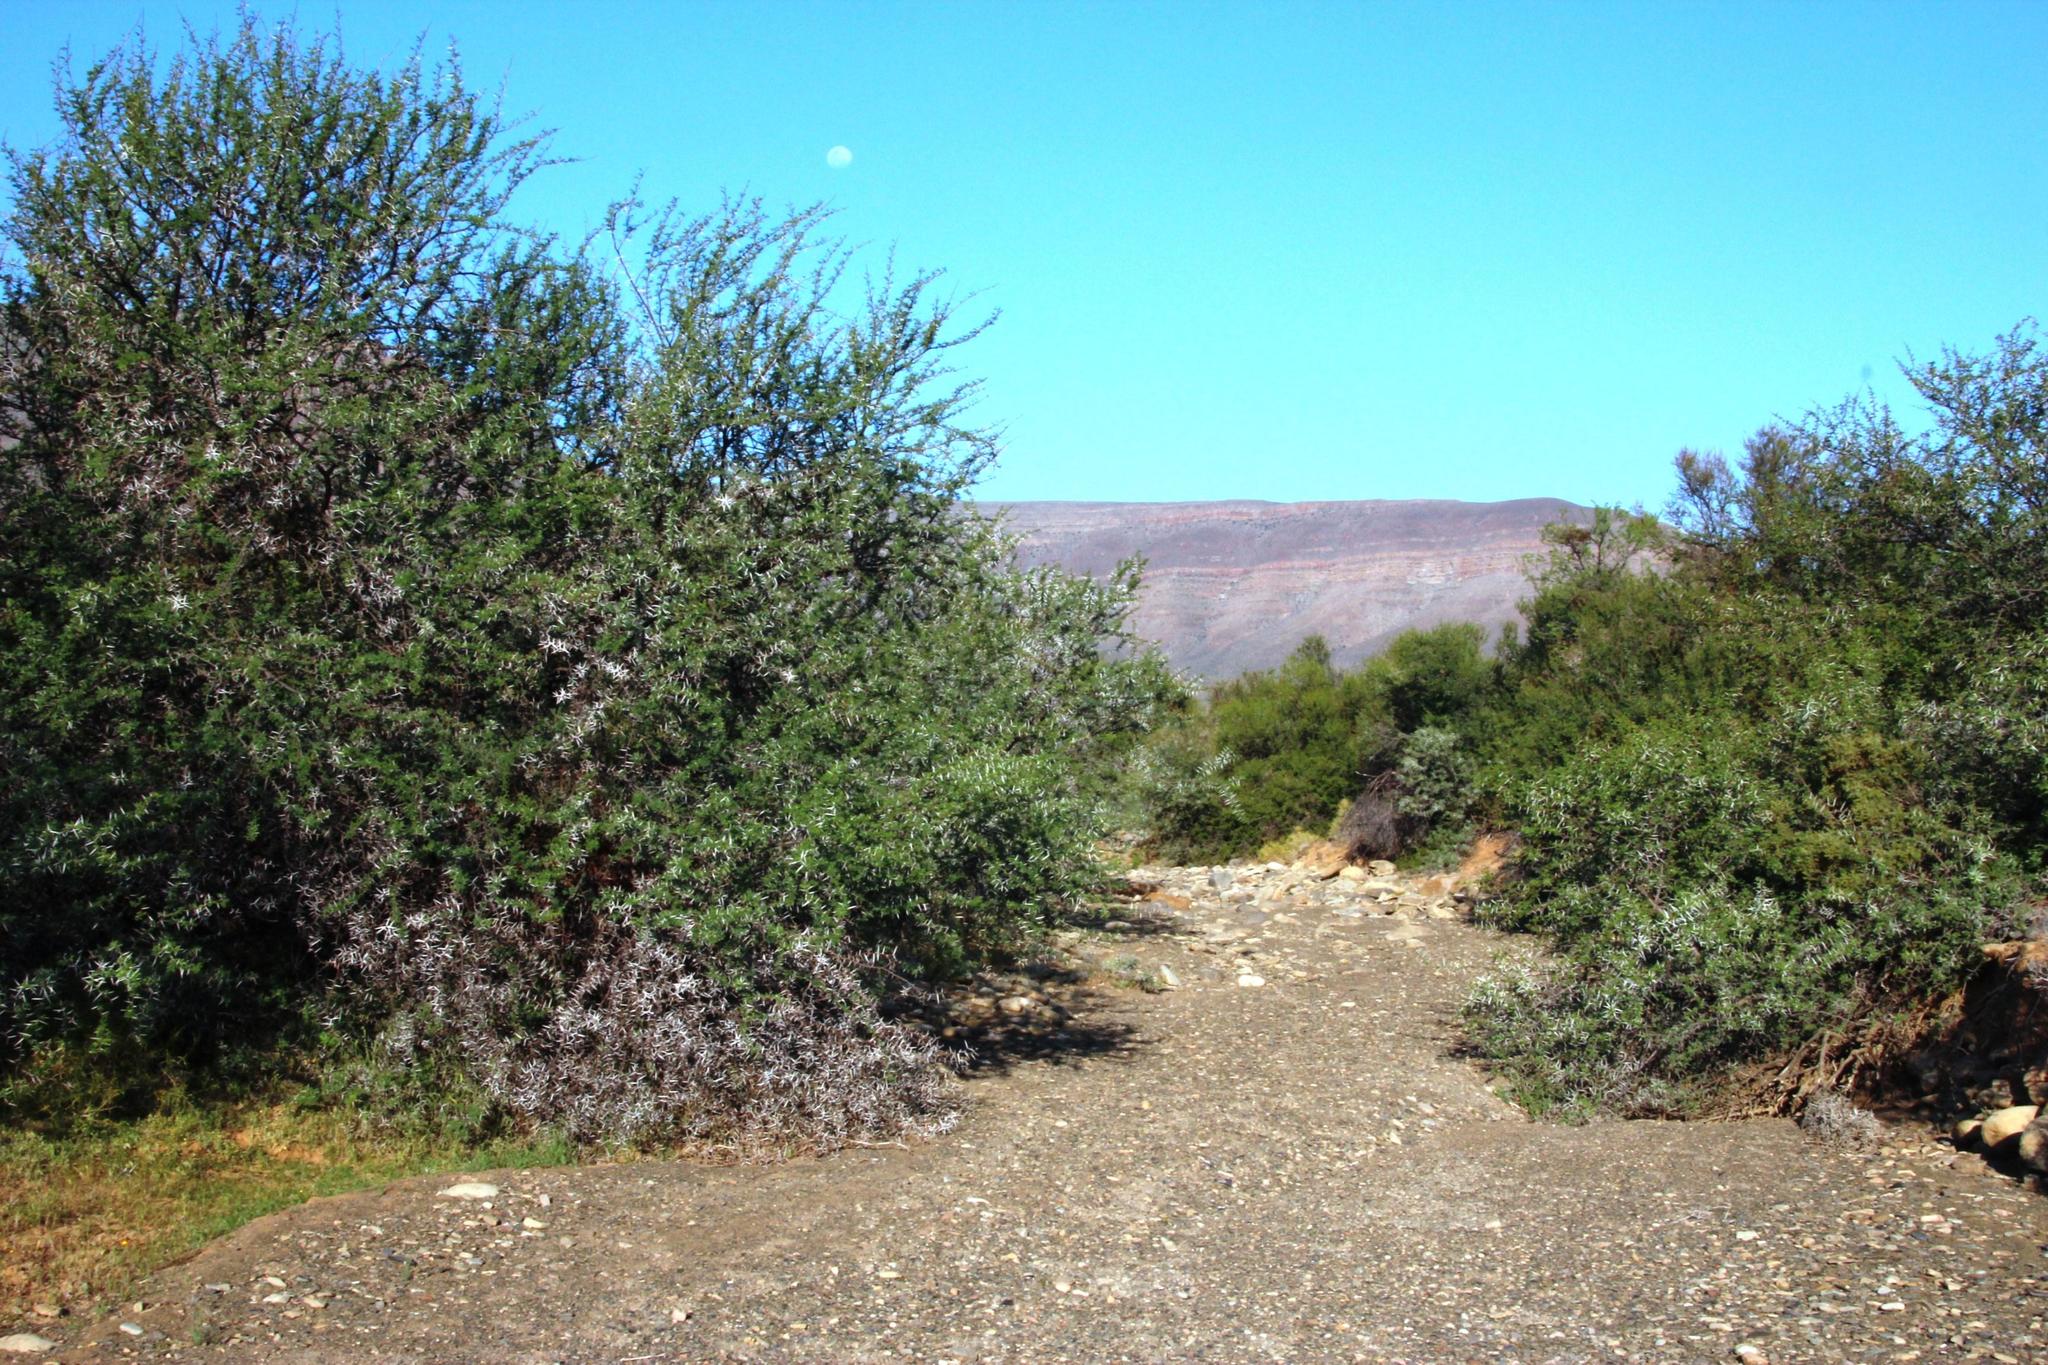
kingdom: Plantae
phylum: Tracheophyta
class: Magnoliopsida
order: Fabales
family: Fabaceae
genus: Vachellia
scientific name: Vachellia karroo
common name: Sweet thorn
